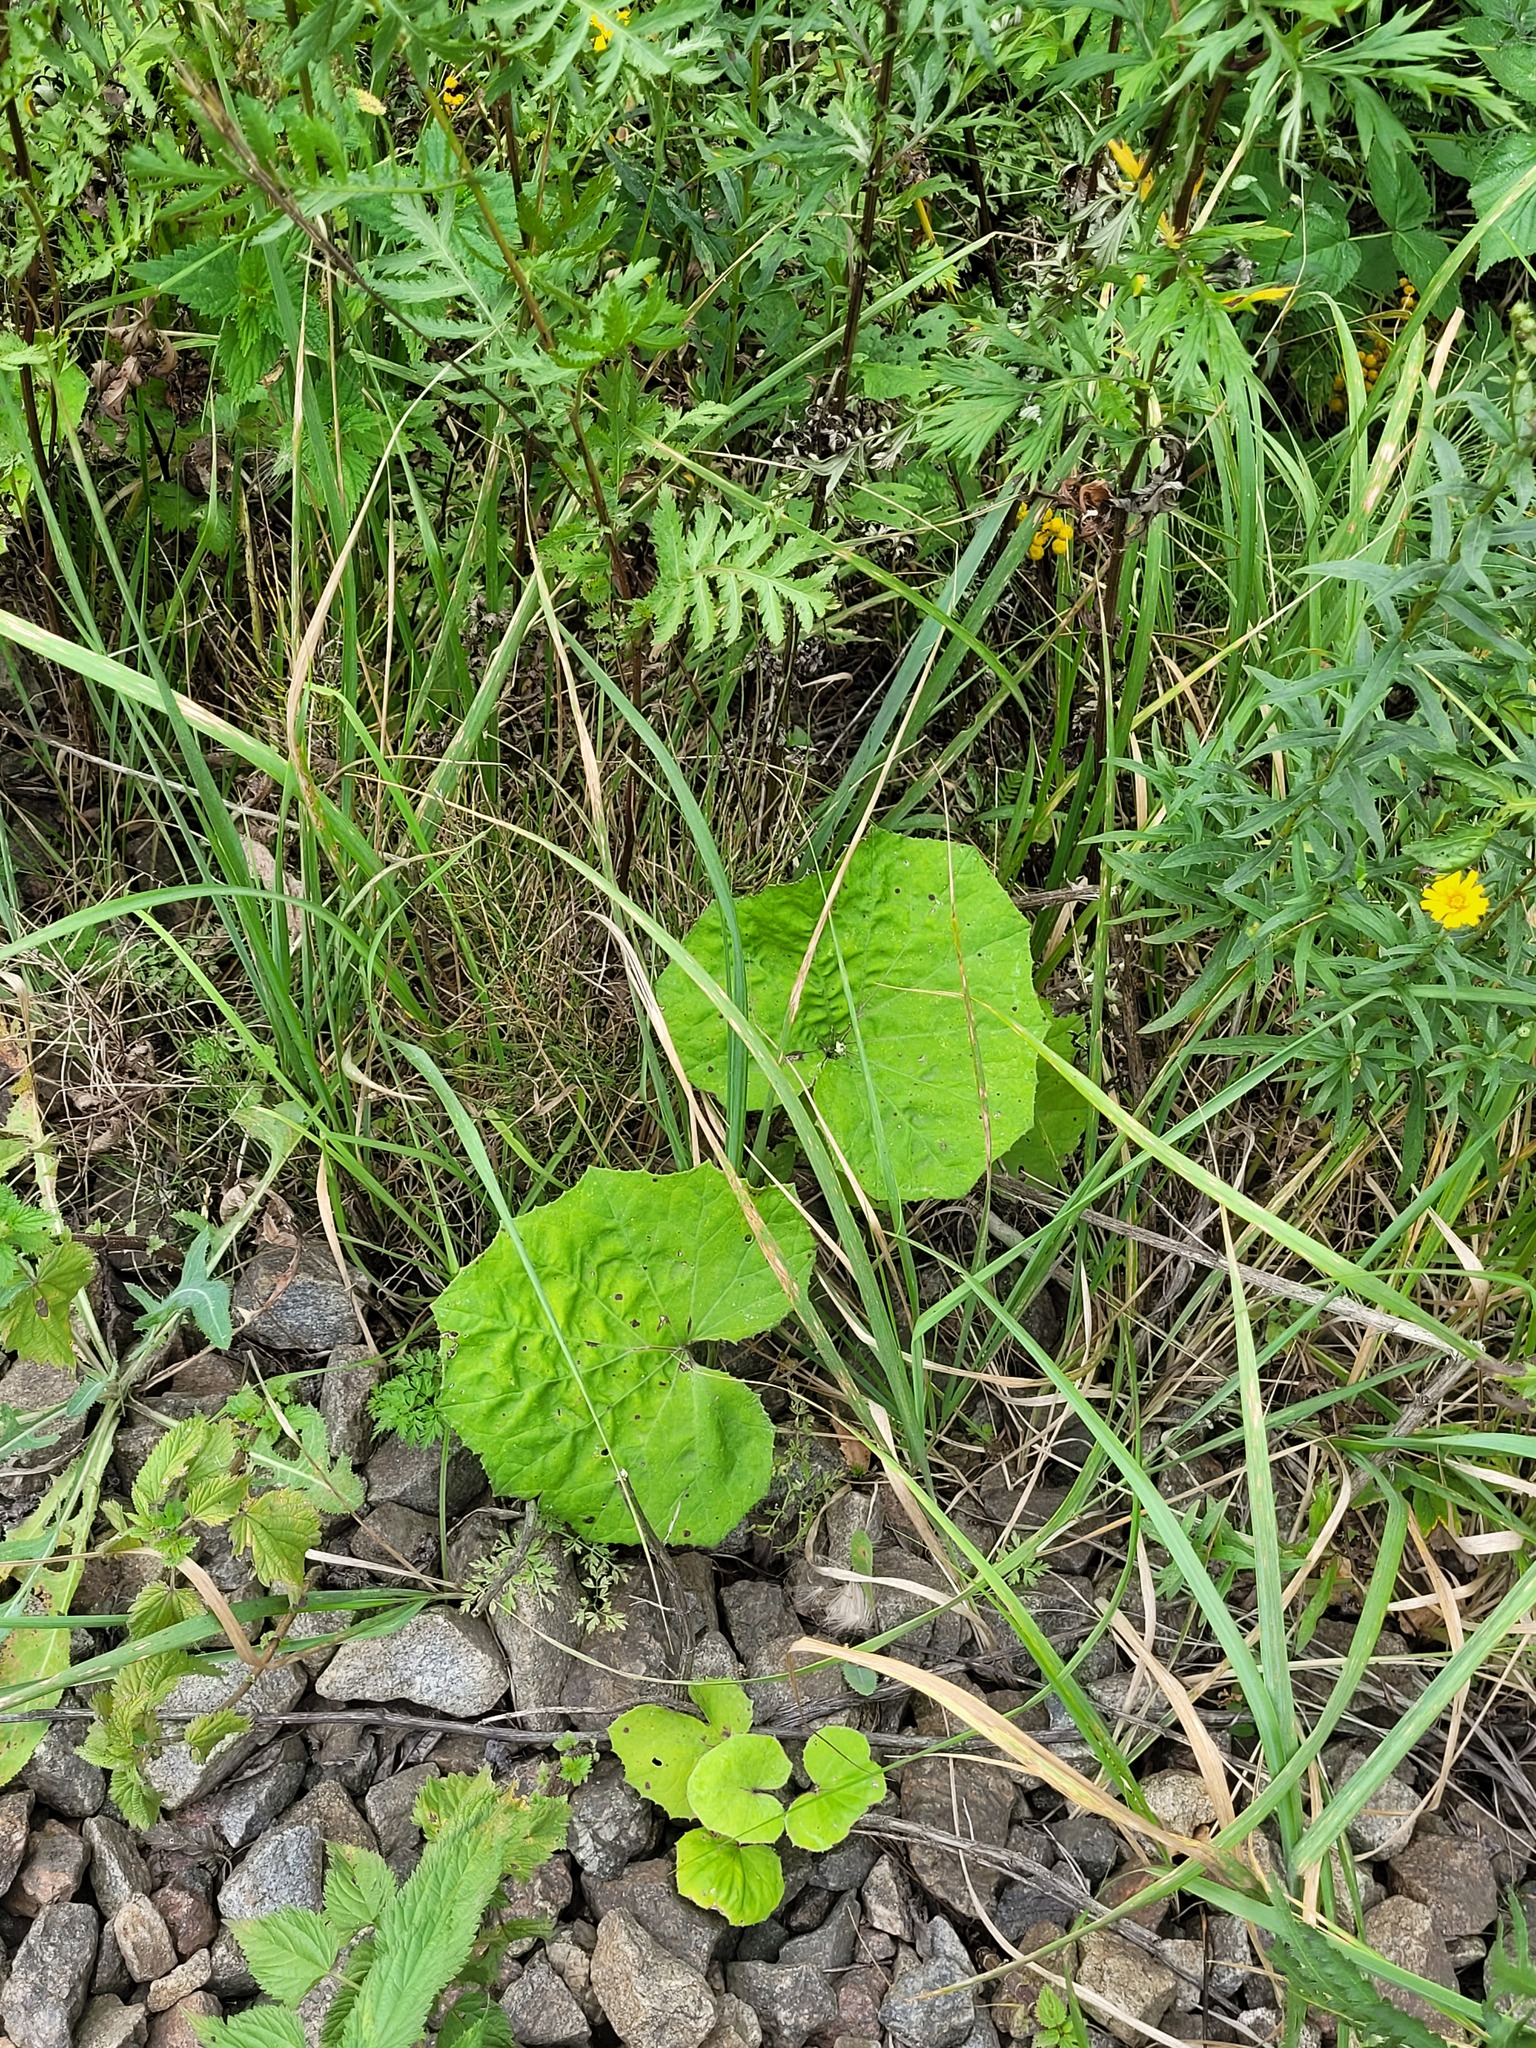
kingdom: Plantae
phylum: Tracheophyta
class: Magnoliopsida
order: Asterales
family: Asteraceae
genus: Tussilago
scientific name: Tussilago farfara
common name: Coltsfoot
